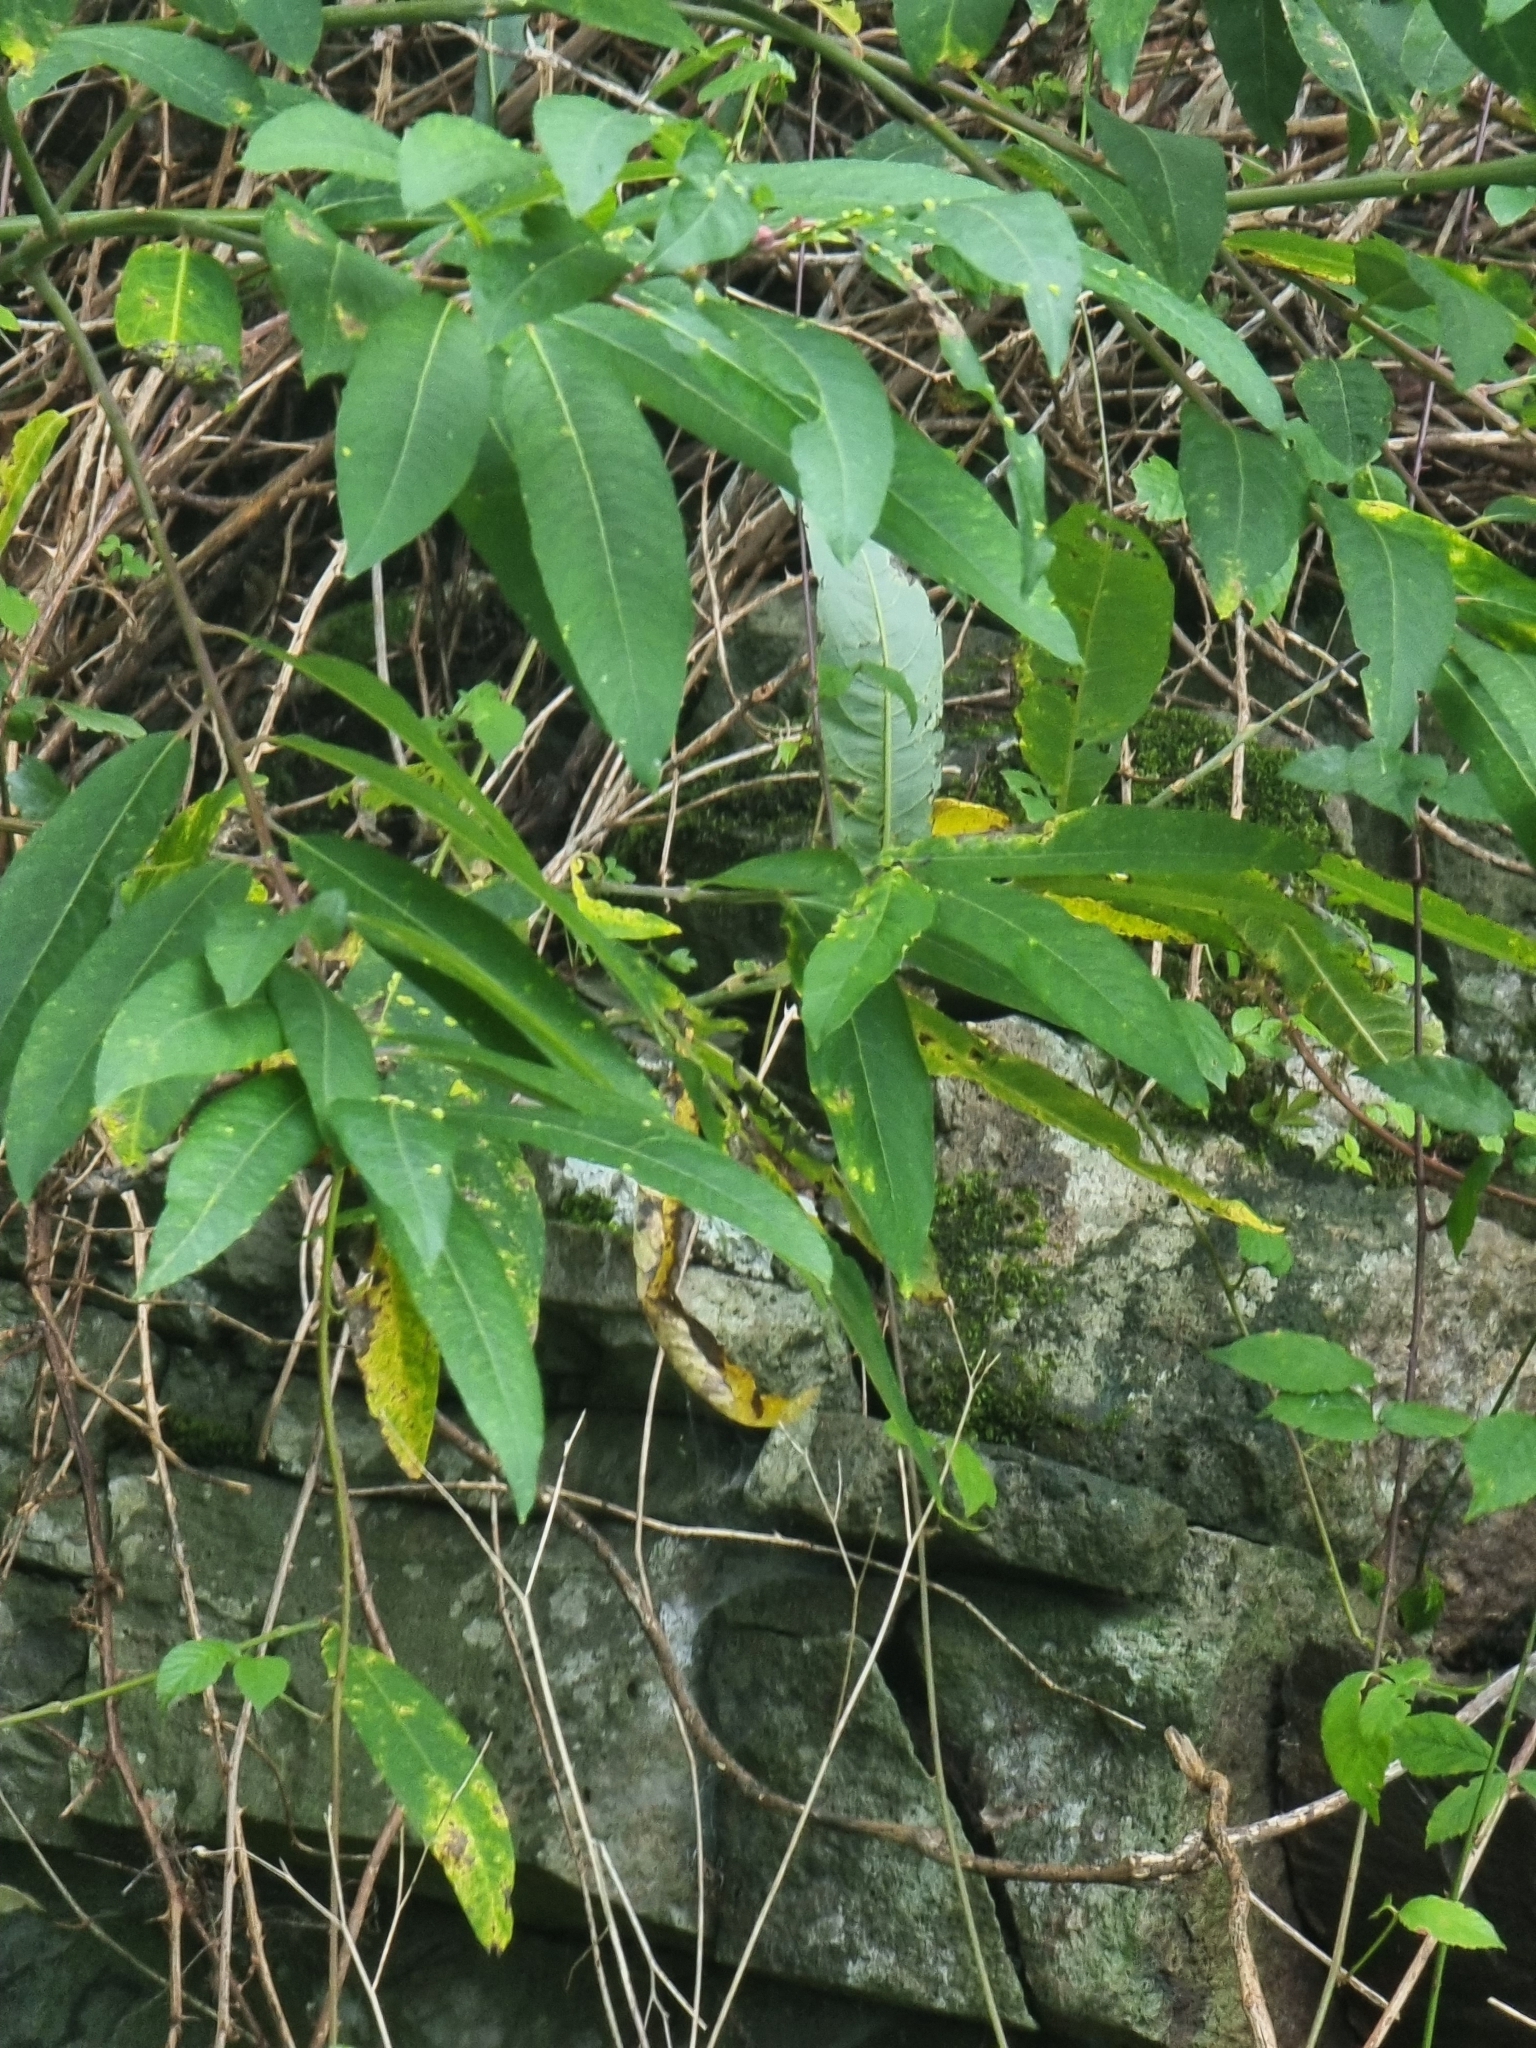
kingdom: Plantae
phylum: Tracheophyta
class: Magnoliopsida
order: Malpighiales
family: Salicaceae
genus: Salix
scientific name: Salix canariensis
